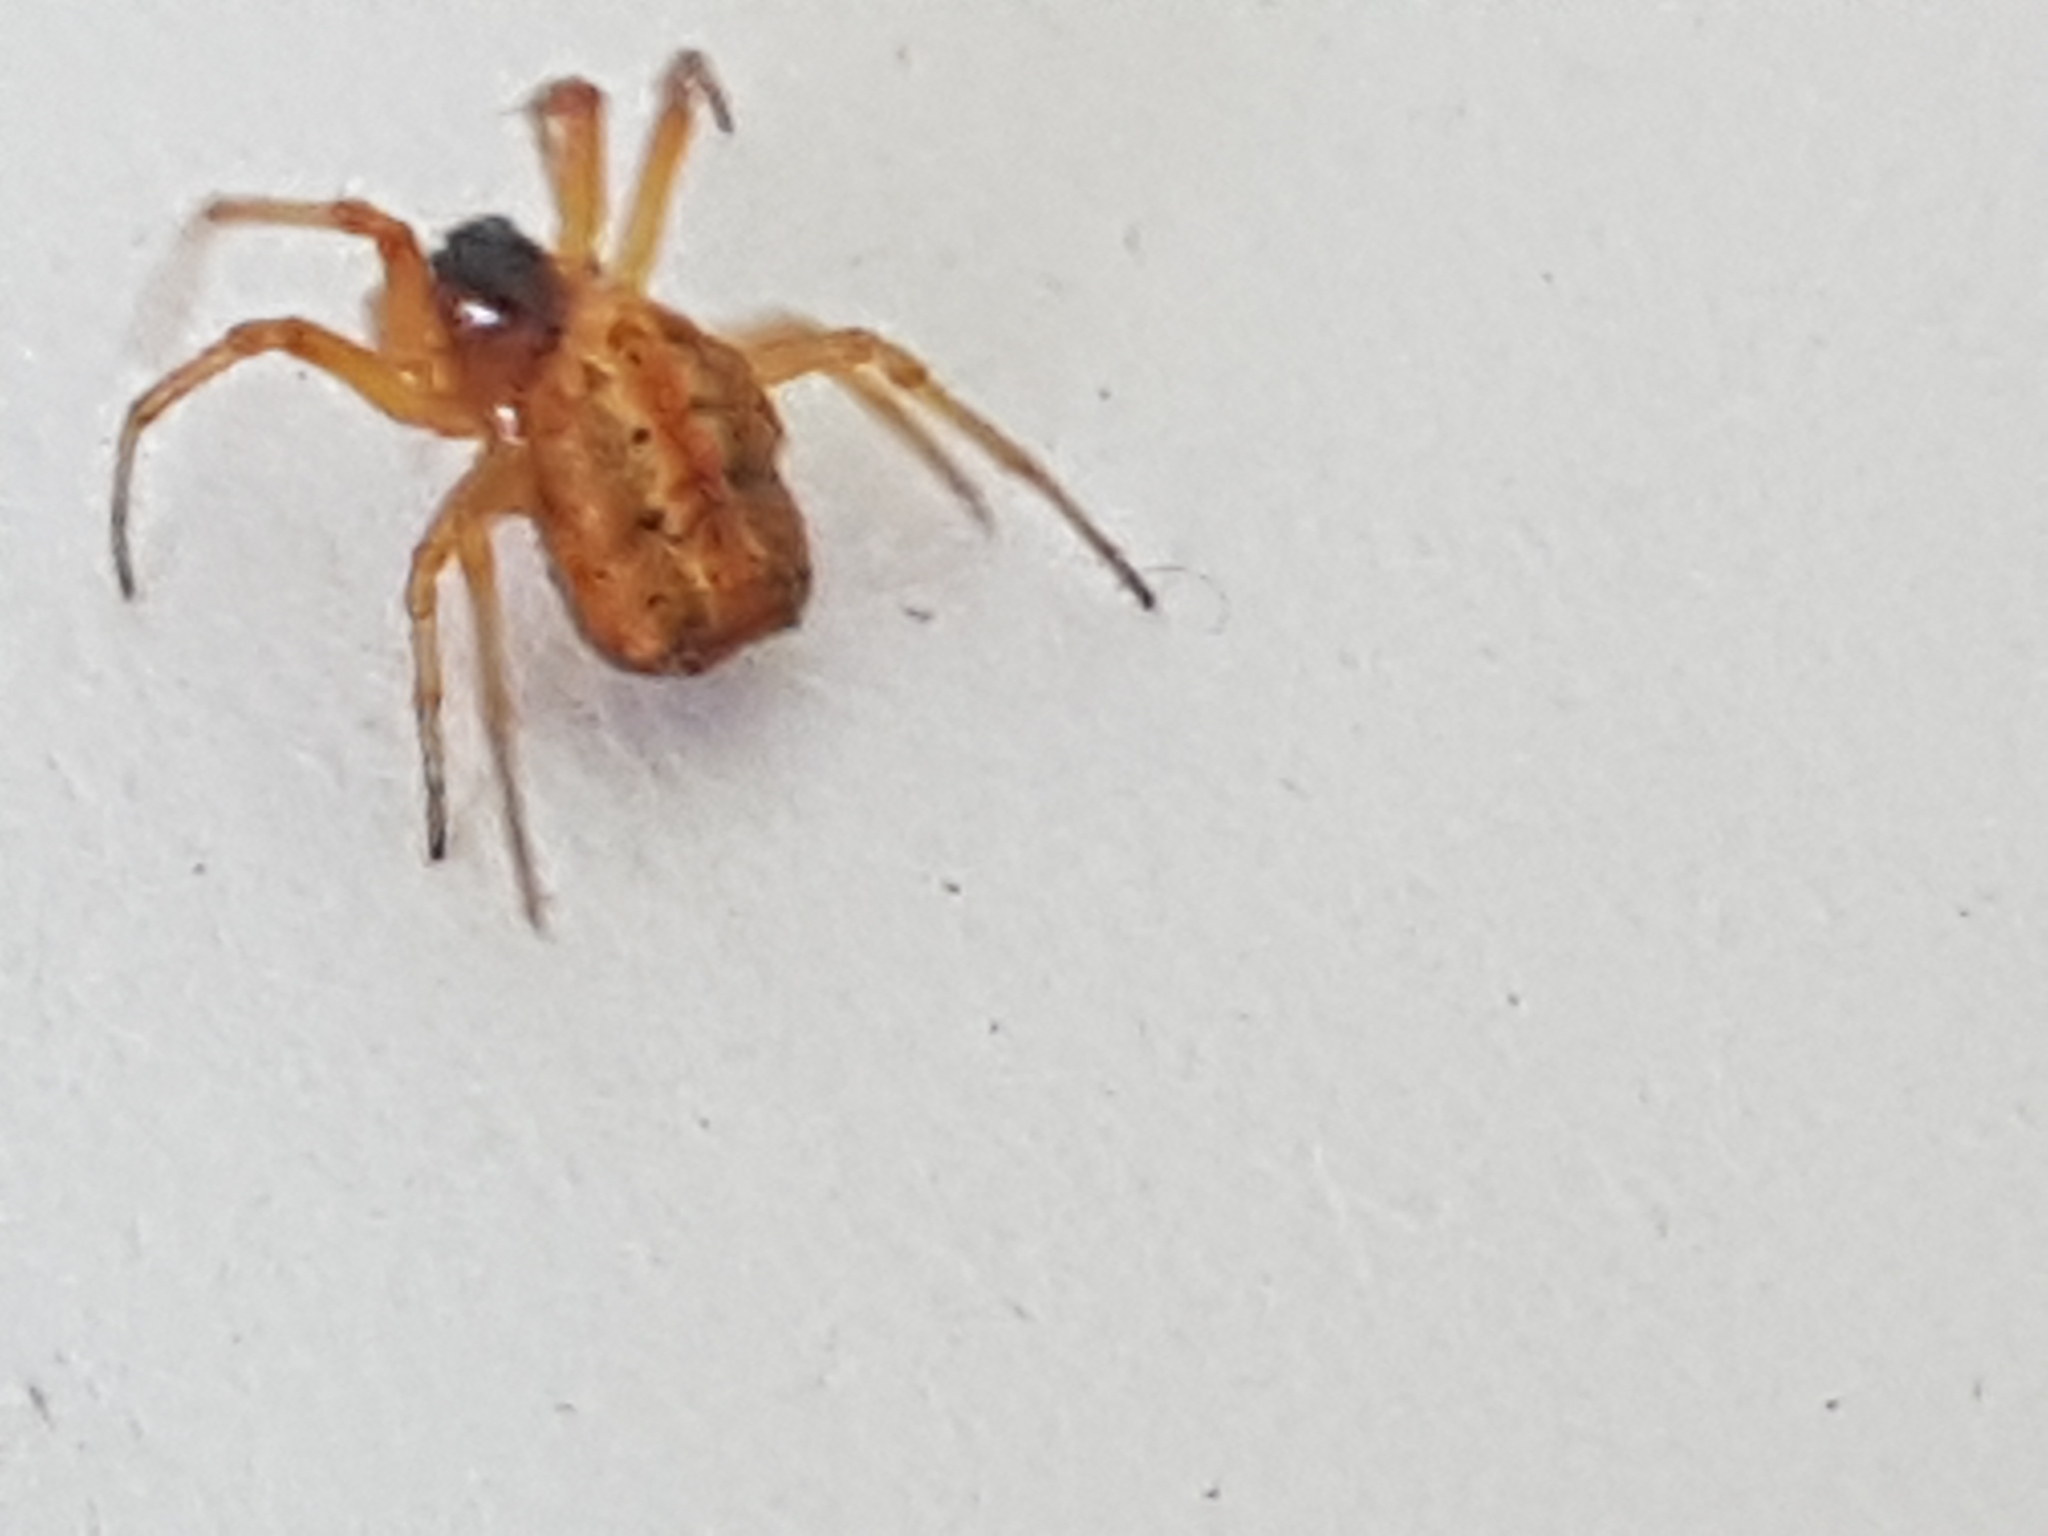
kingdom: Animalia
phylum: Arthropoda
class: Arachnida
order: Araneae
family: Araneidae
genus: Hypsosinga
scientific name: Hypsosinga heri
